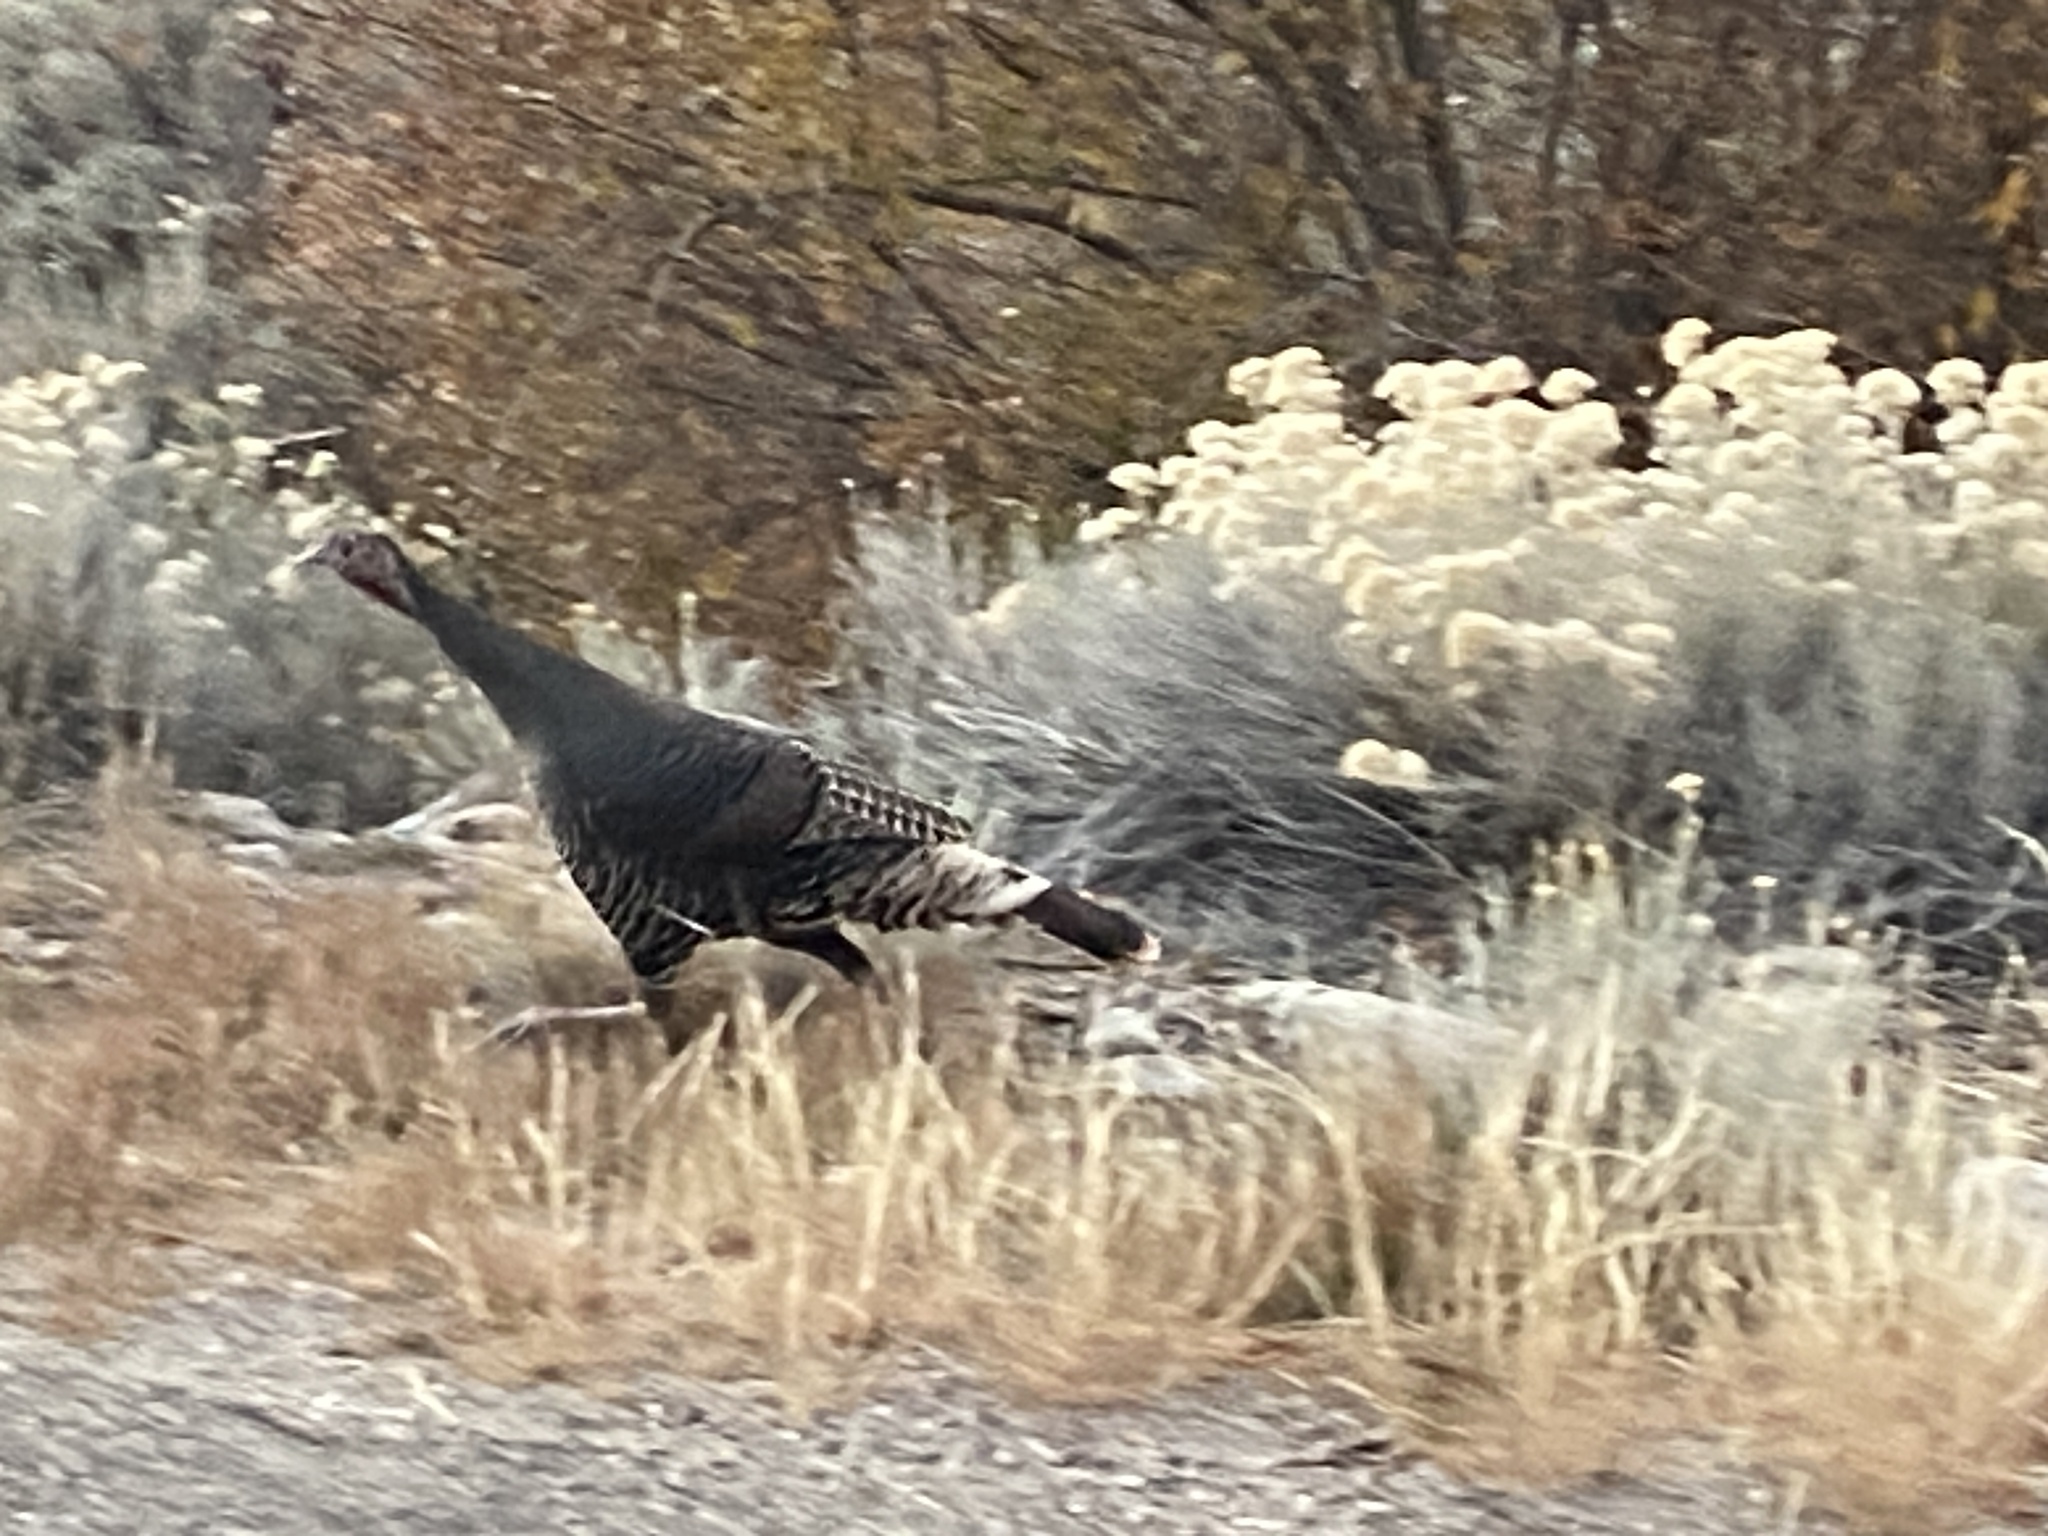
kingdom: Animalia
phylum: Chordata
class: Aves
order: Galliformes
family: Phasianidae
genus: Meleagris
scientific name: Meleagris gallopavo
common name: Wild turkey
